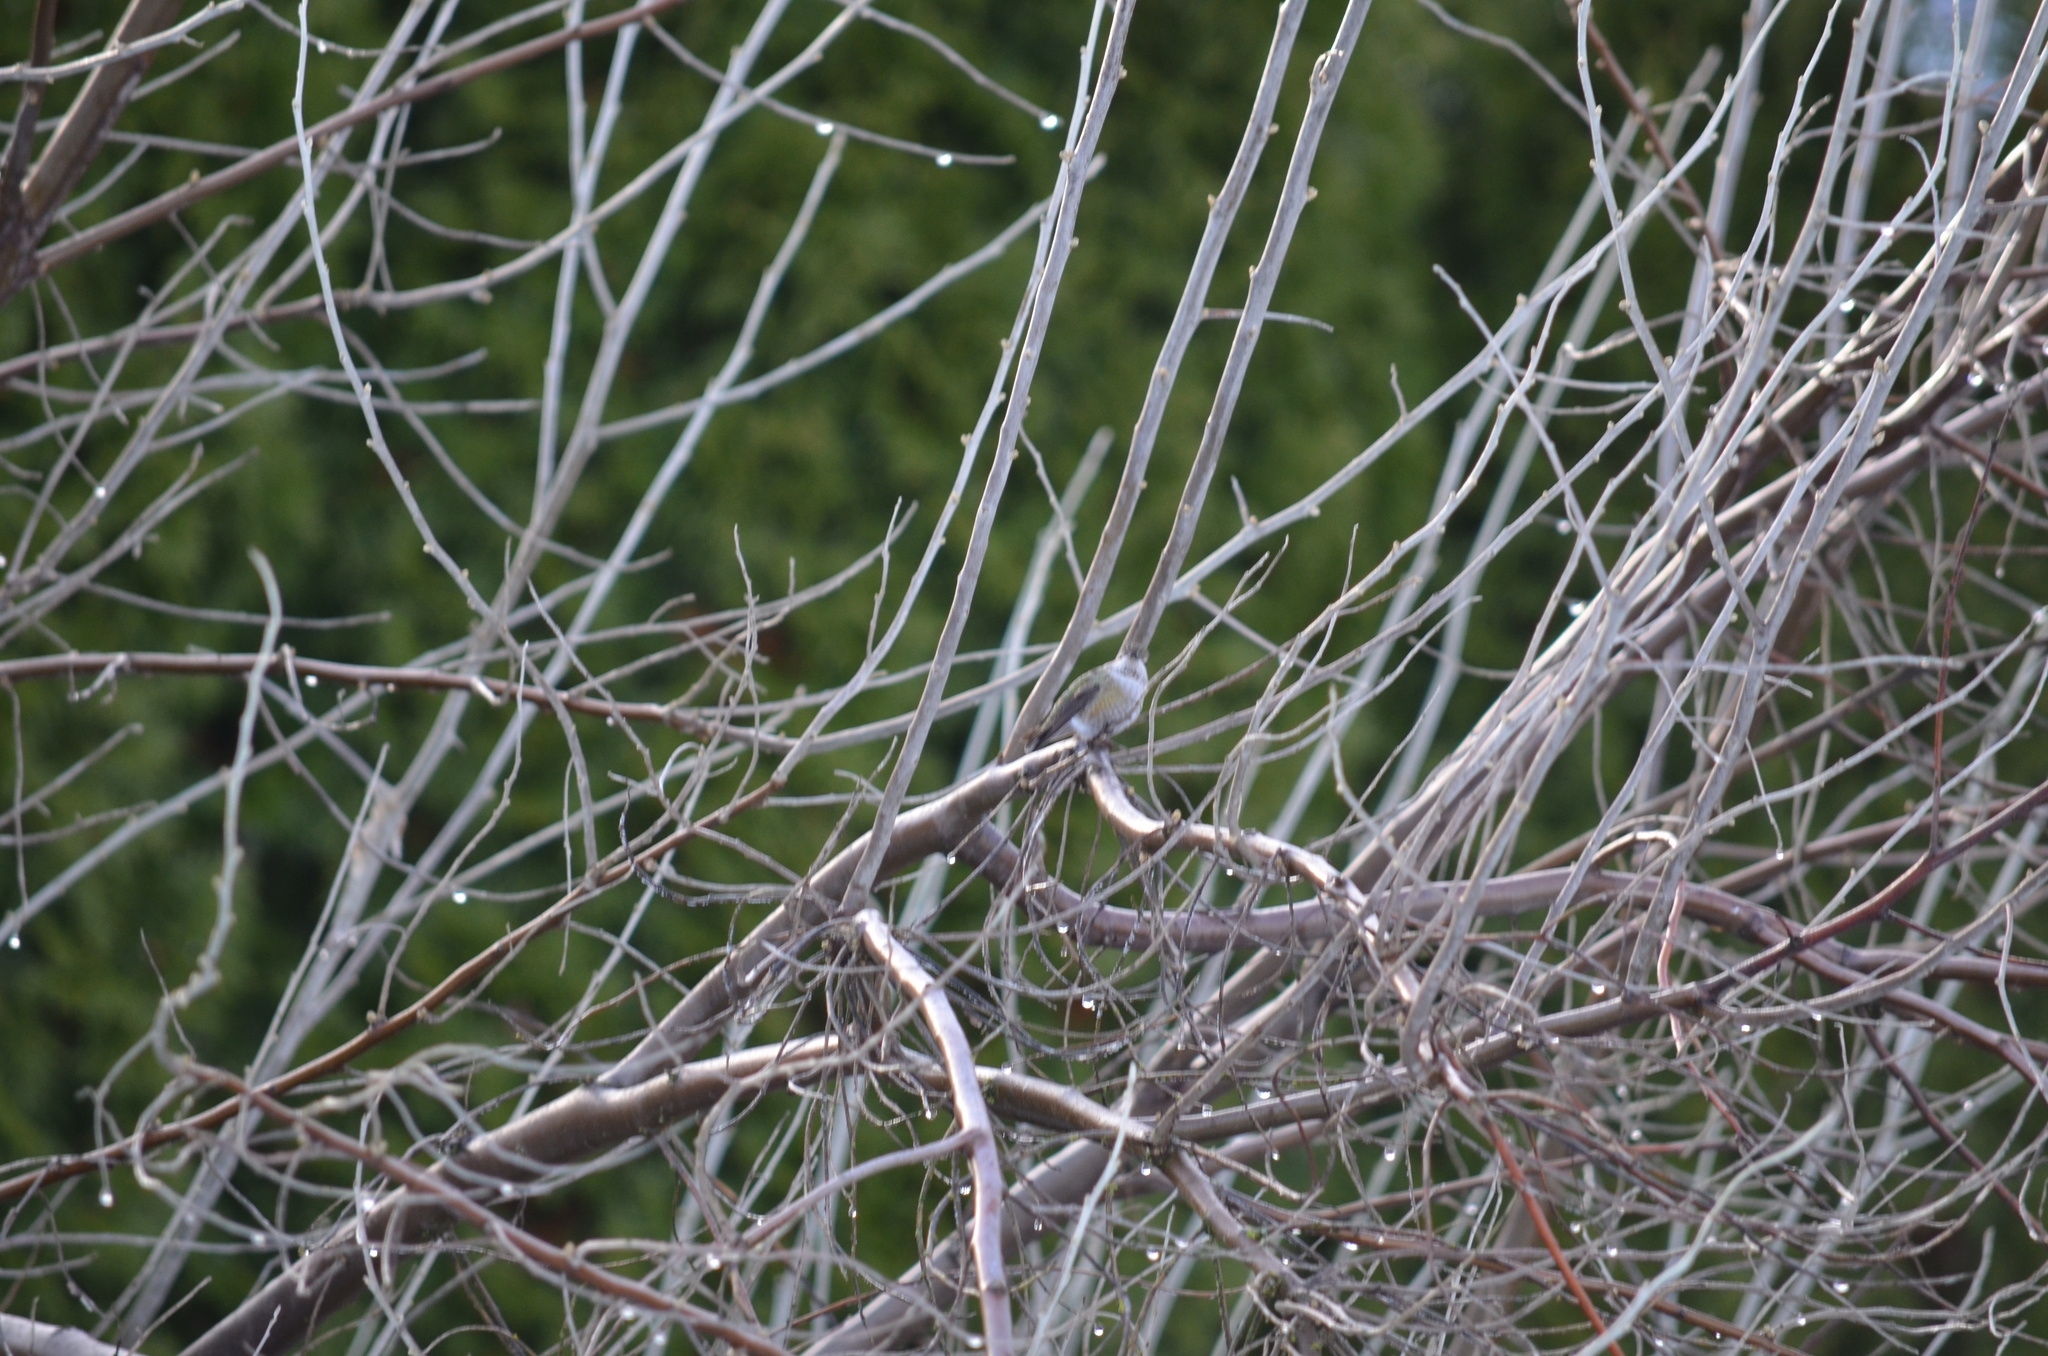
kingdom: Animalia
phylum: Chordata
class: Aves
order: Apodiformes
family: Trochilidae
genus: Calypte
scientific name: Calypte anna
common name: Anna's hummingbird
